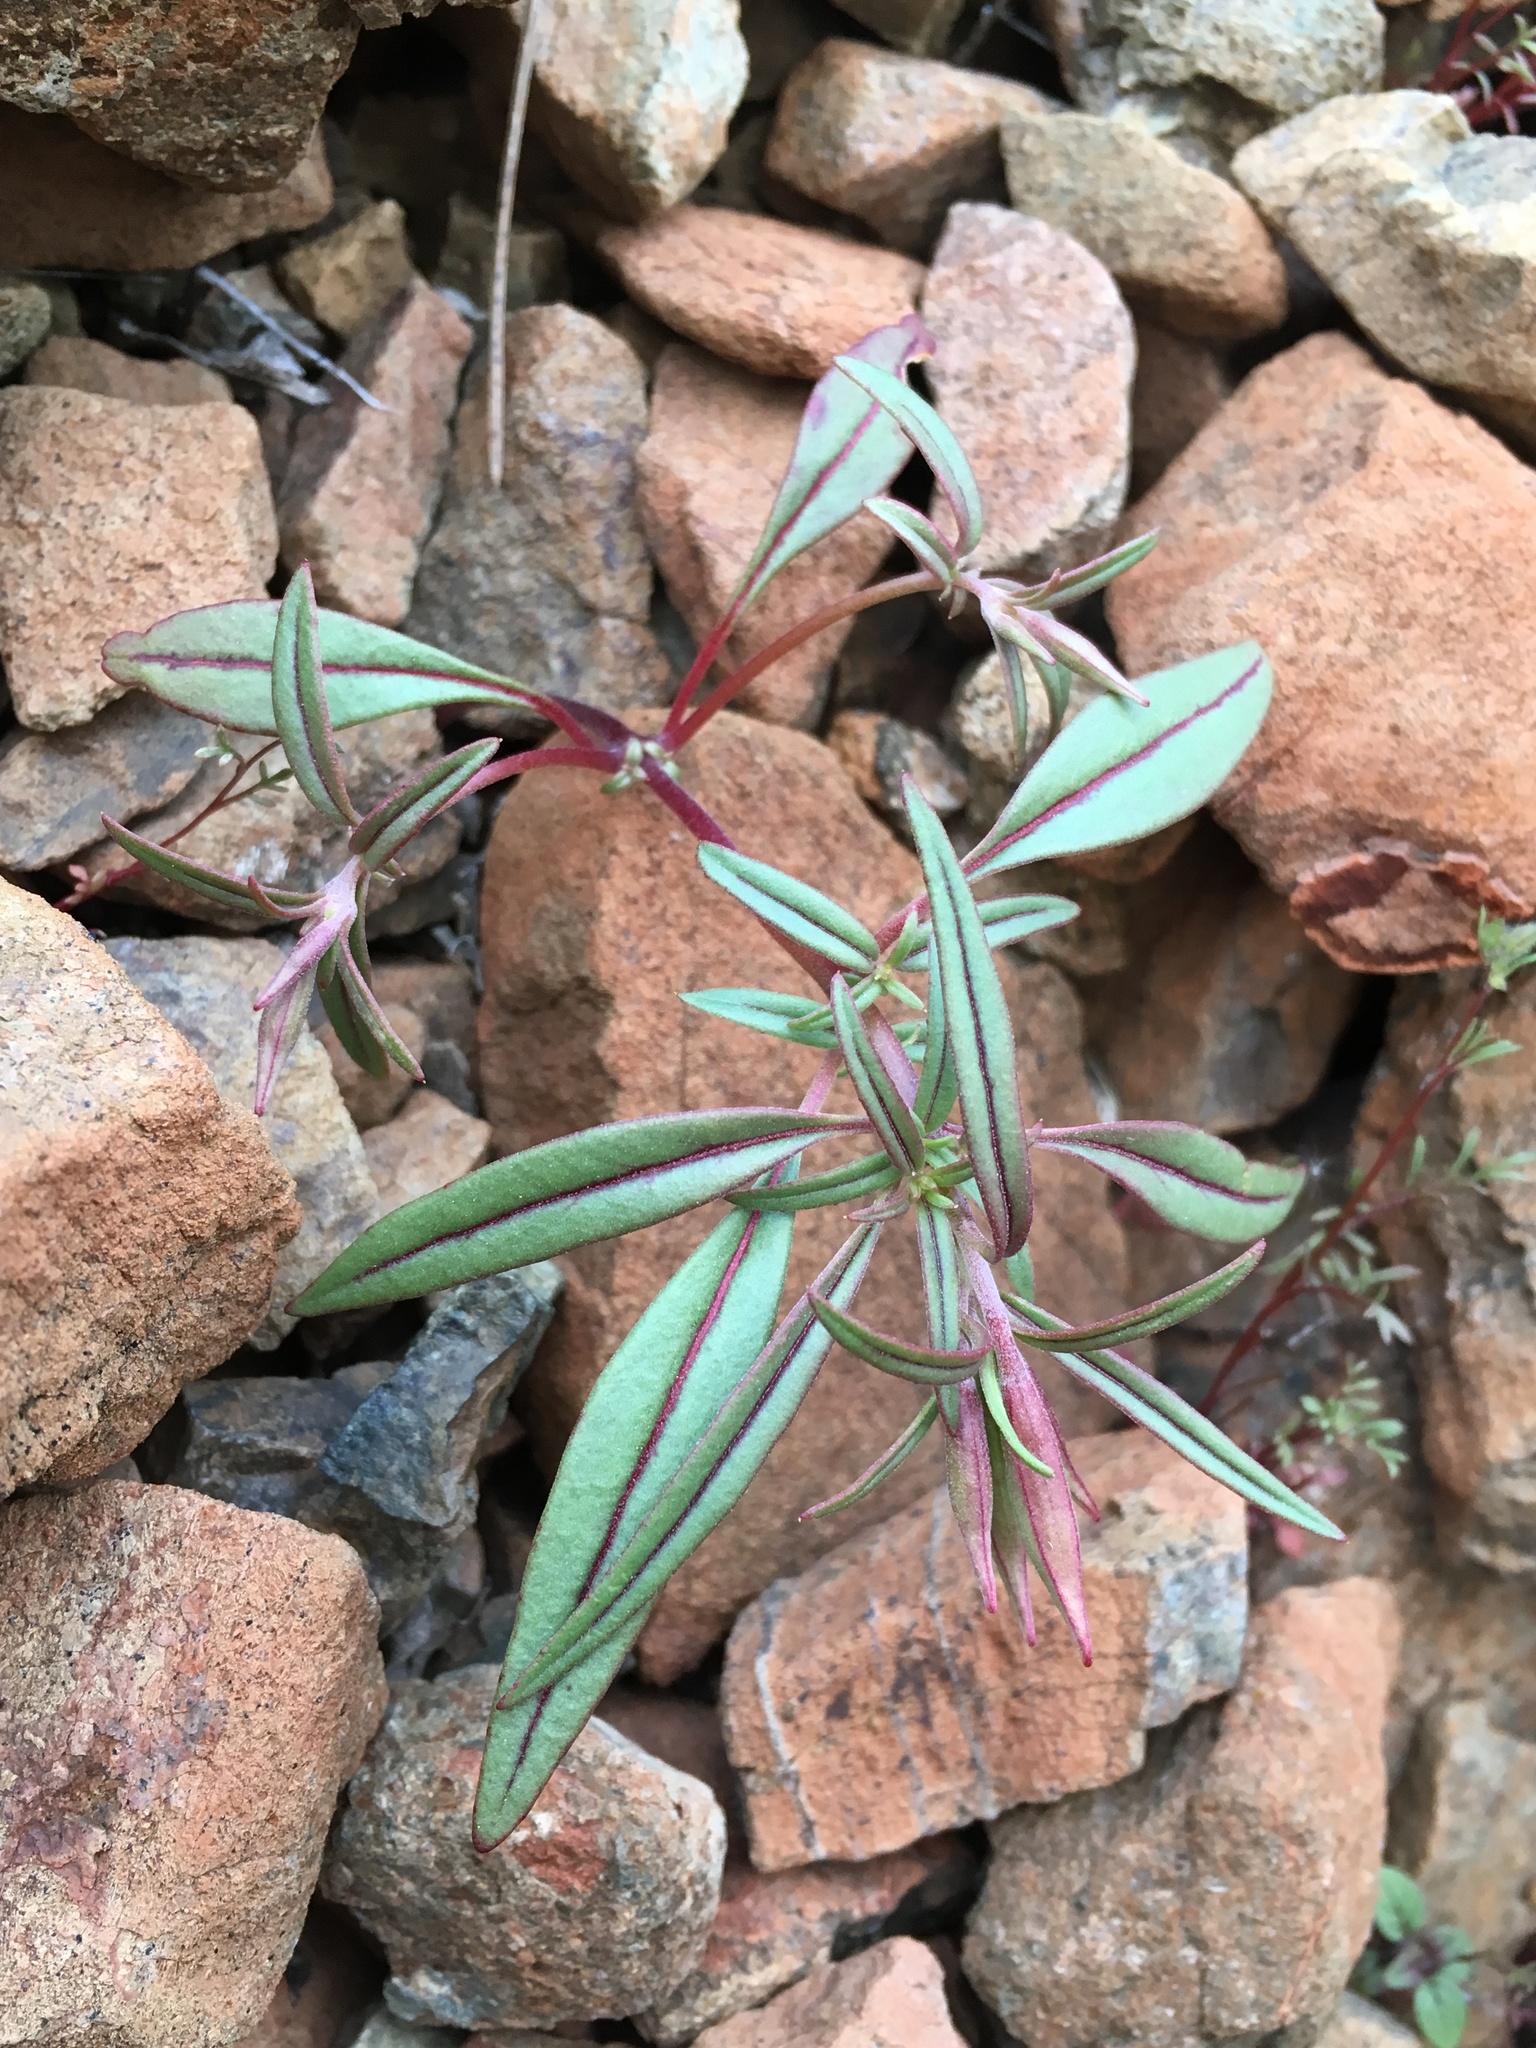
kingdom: Plantae
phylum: Tracheophyta
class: Magnoliopsida
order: Myrtales
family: Onagraceae
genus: Clarkia
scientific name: Clarkia breweri
